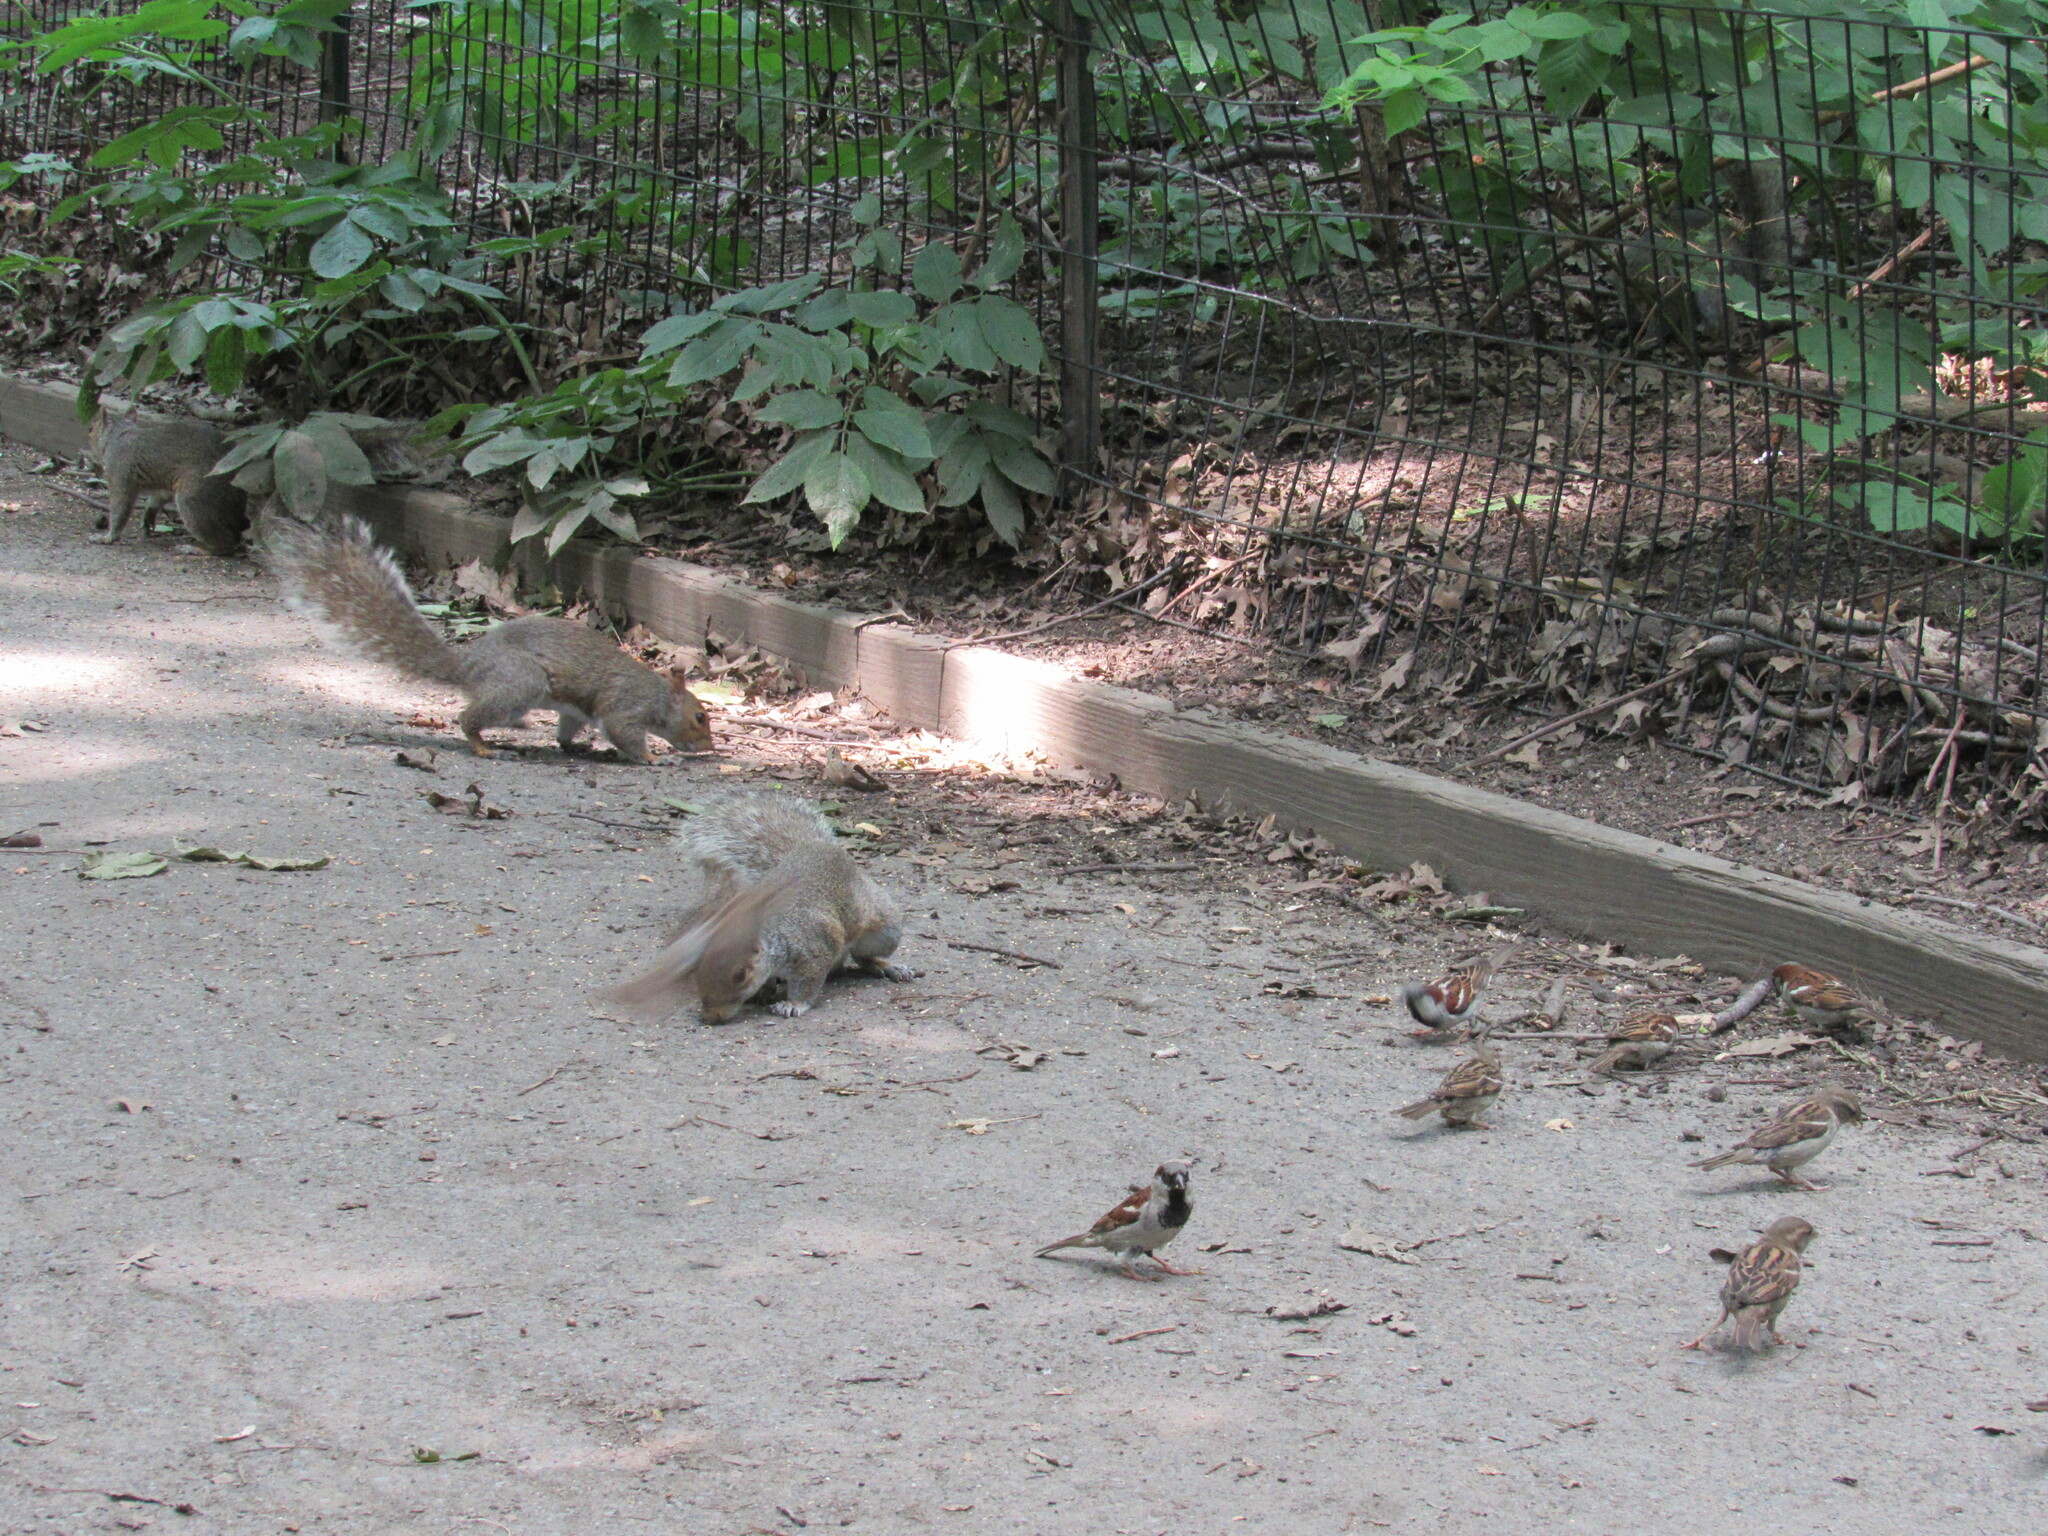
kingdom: Animalia
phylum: Chordata
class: Aves
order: Passeriformes
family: Passeridae
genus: Passer
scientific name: Passer domesticus
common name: House sparrow
